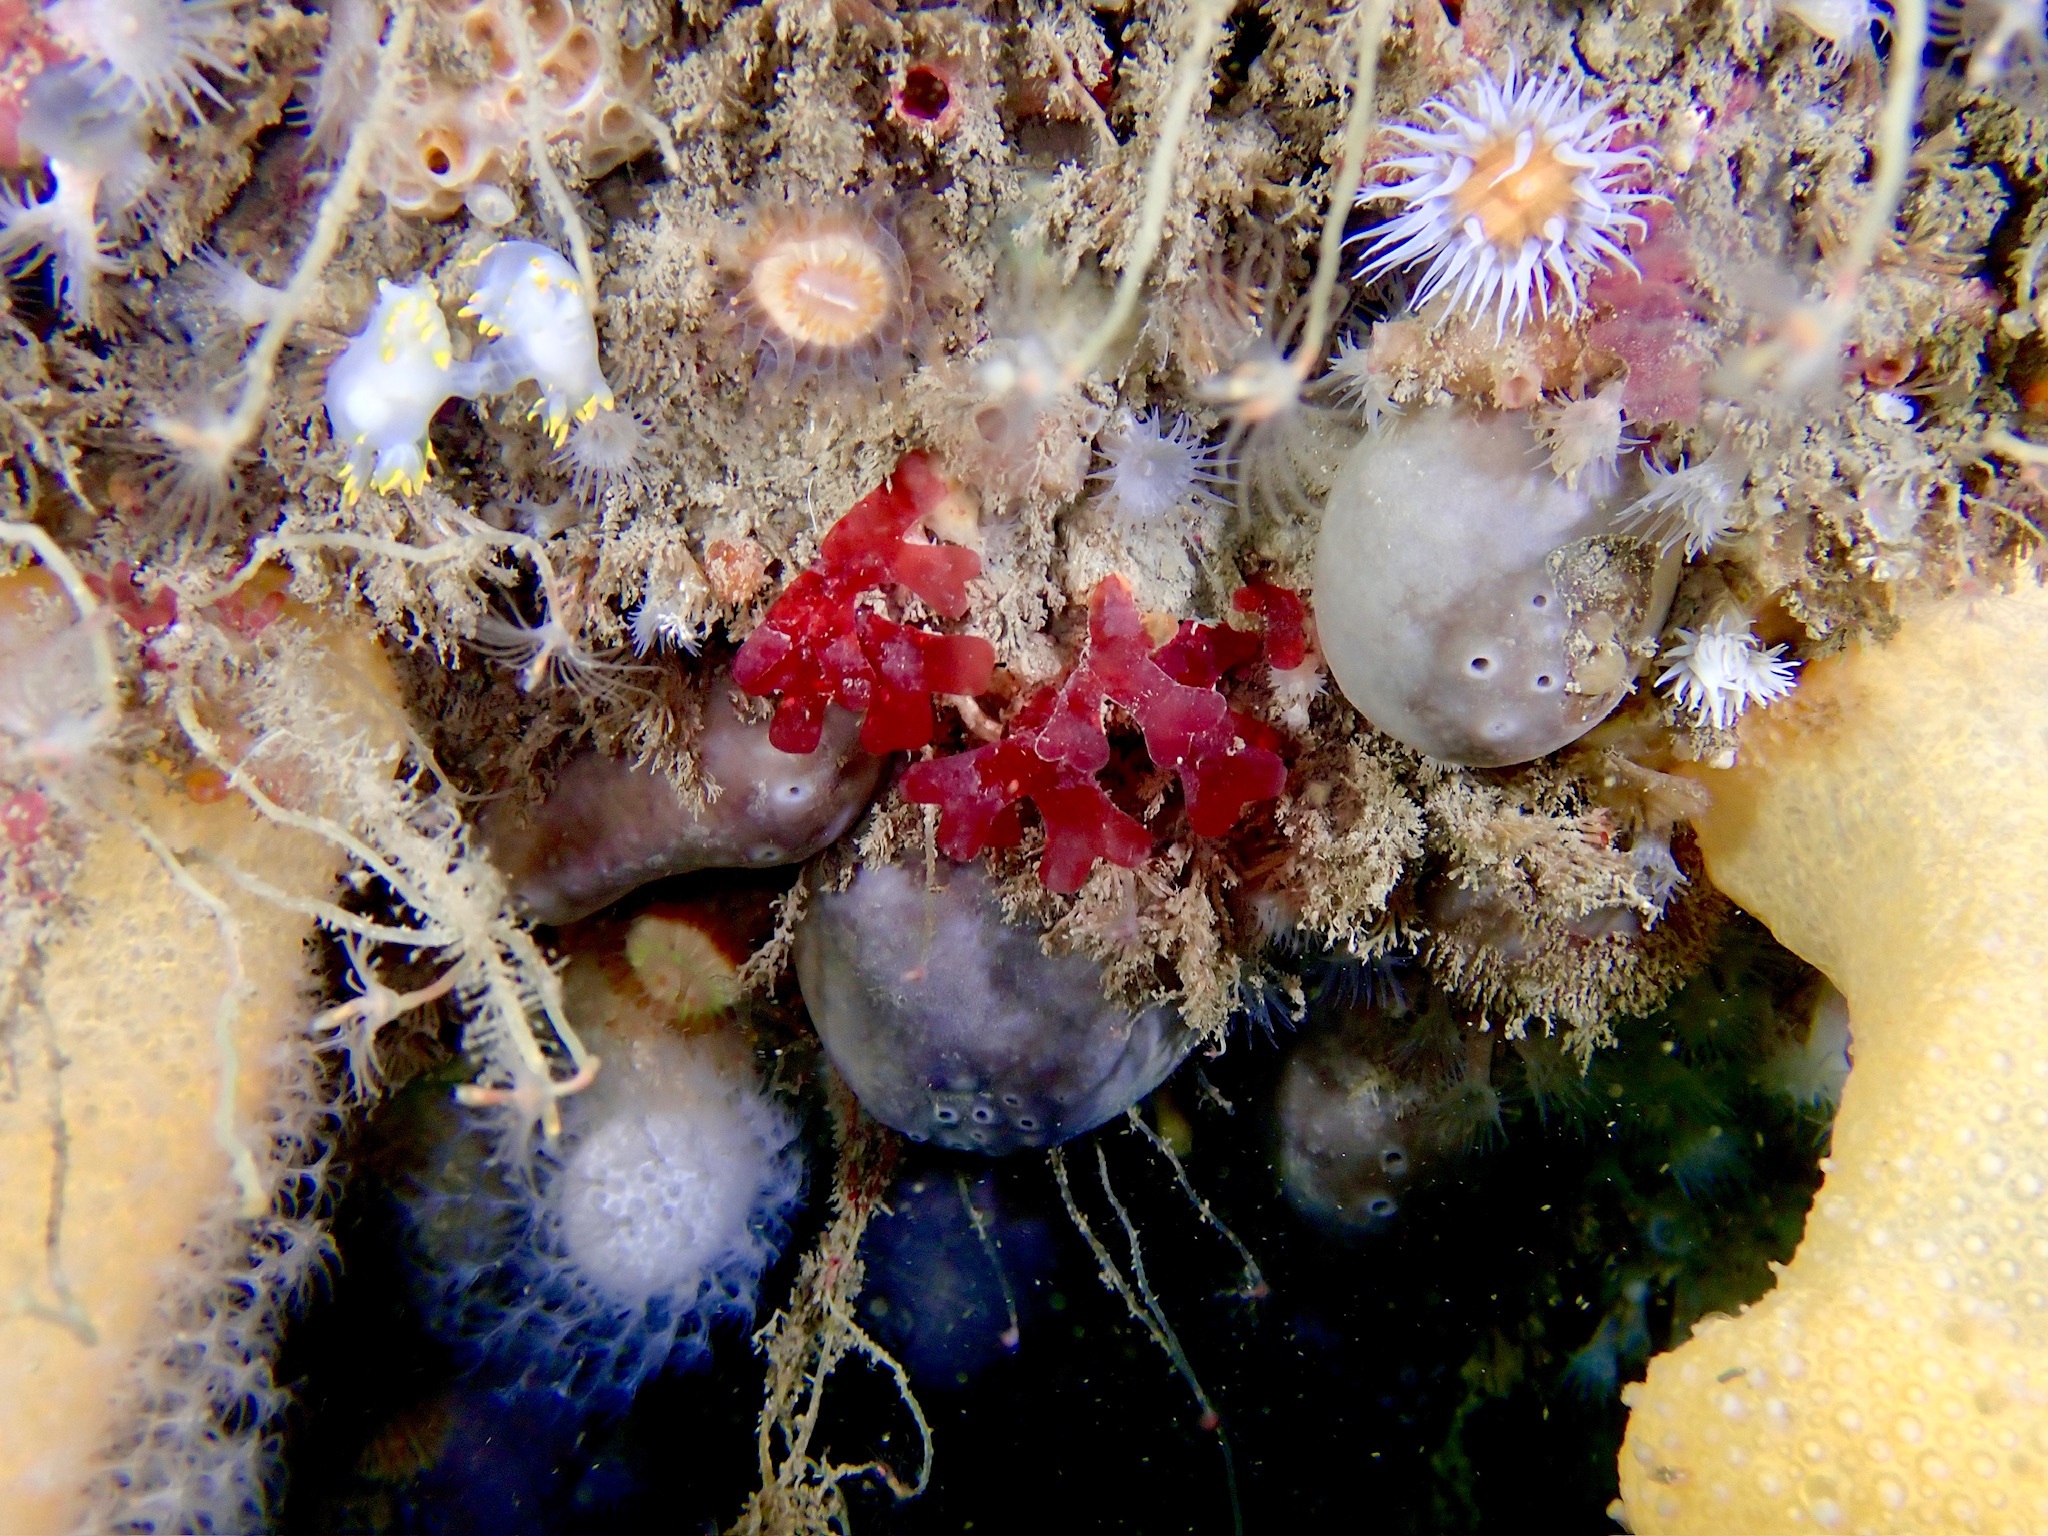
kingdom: Animalia
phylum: Mollusca
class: Gastropoda
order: Nudibranchia
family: Polyceridae
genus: Polycera
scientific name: Polycera faeroensis
